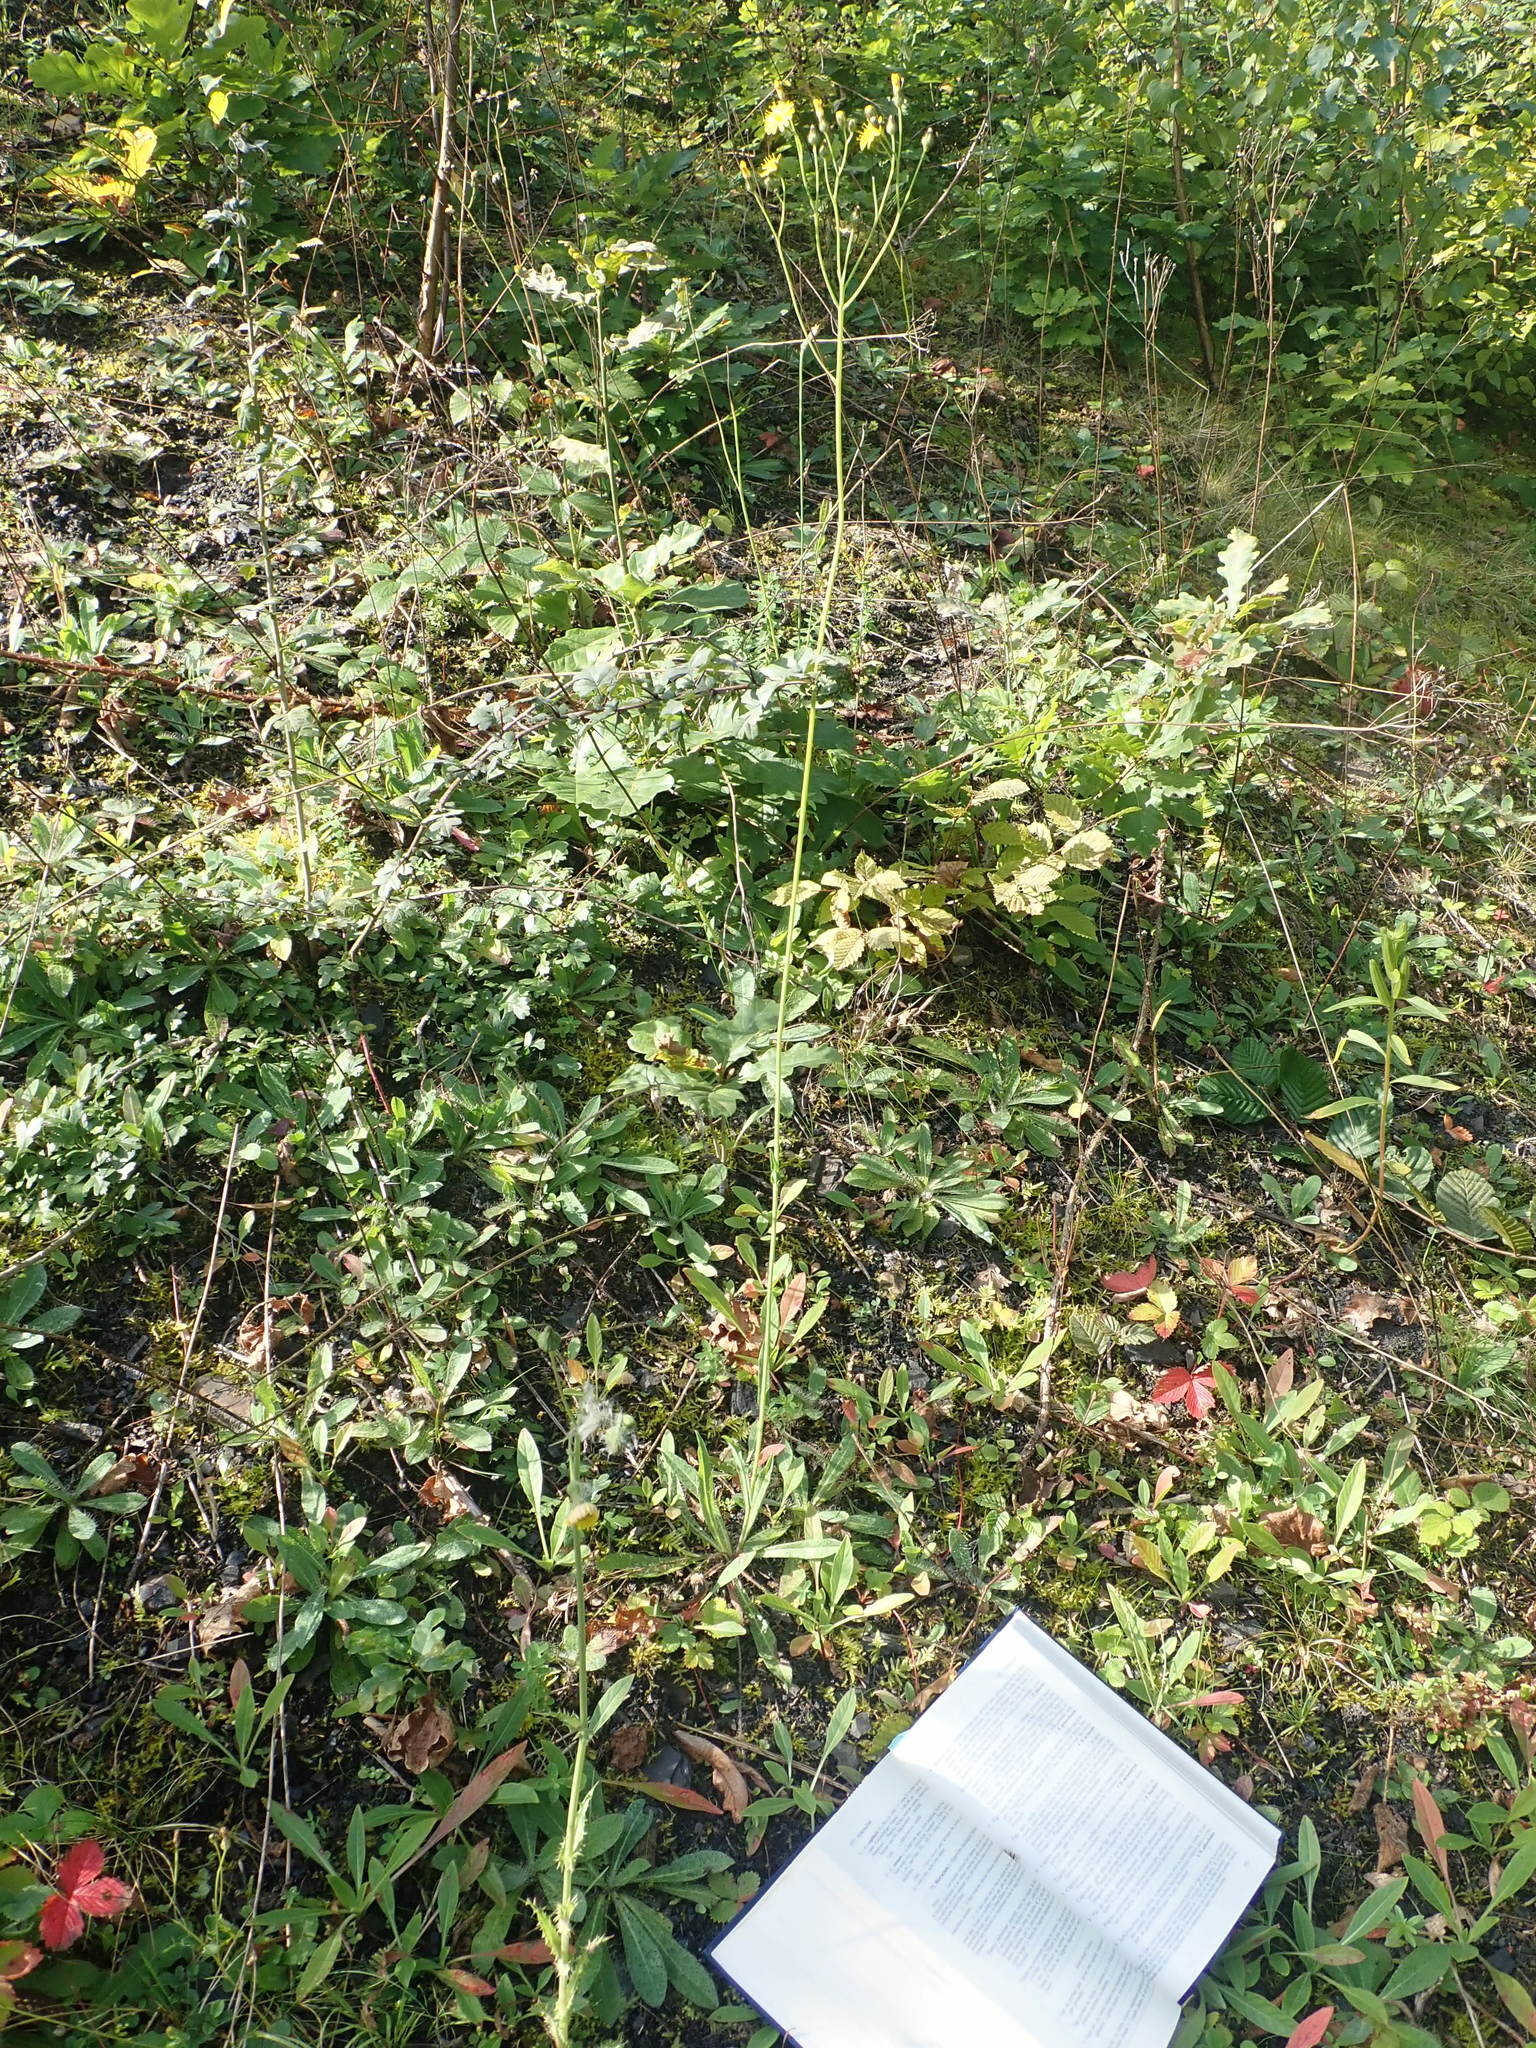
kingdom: Plantae
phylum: Tracheophyta
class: Magnoliopsida
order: Asterales
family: Asteraceae
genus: Pilosella
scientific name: Pilosella bauhini
